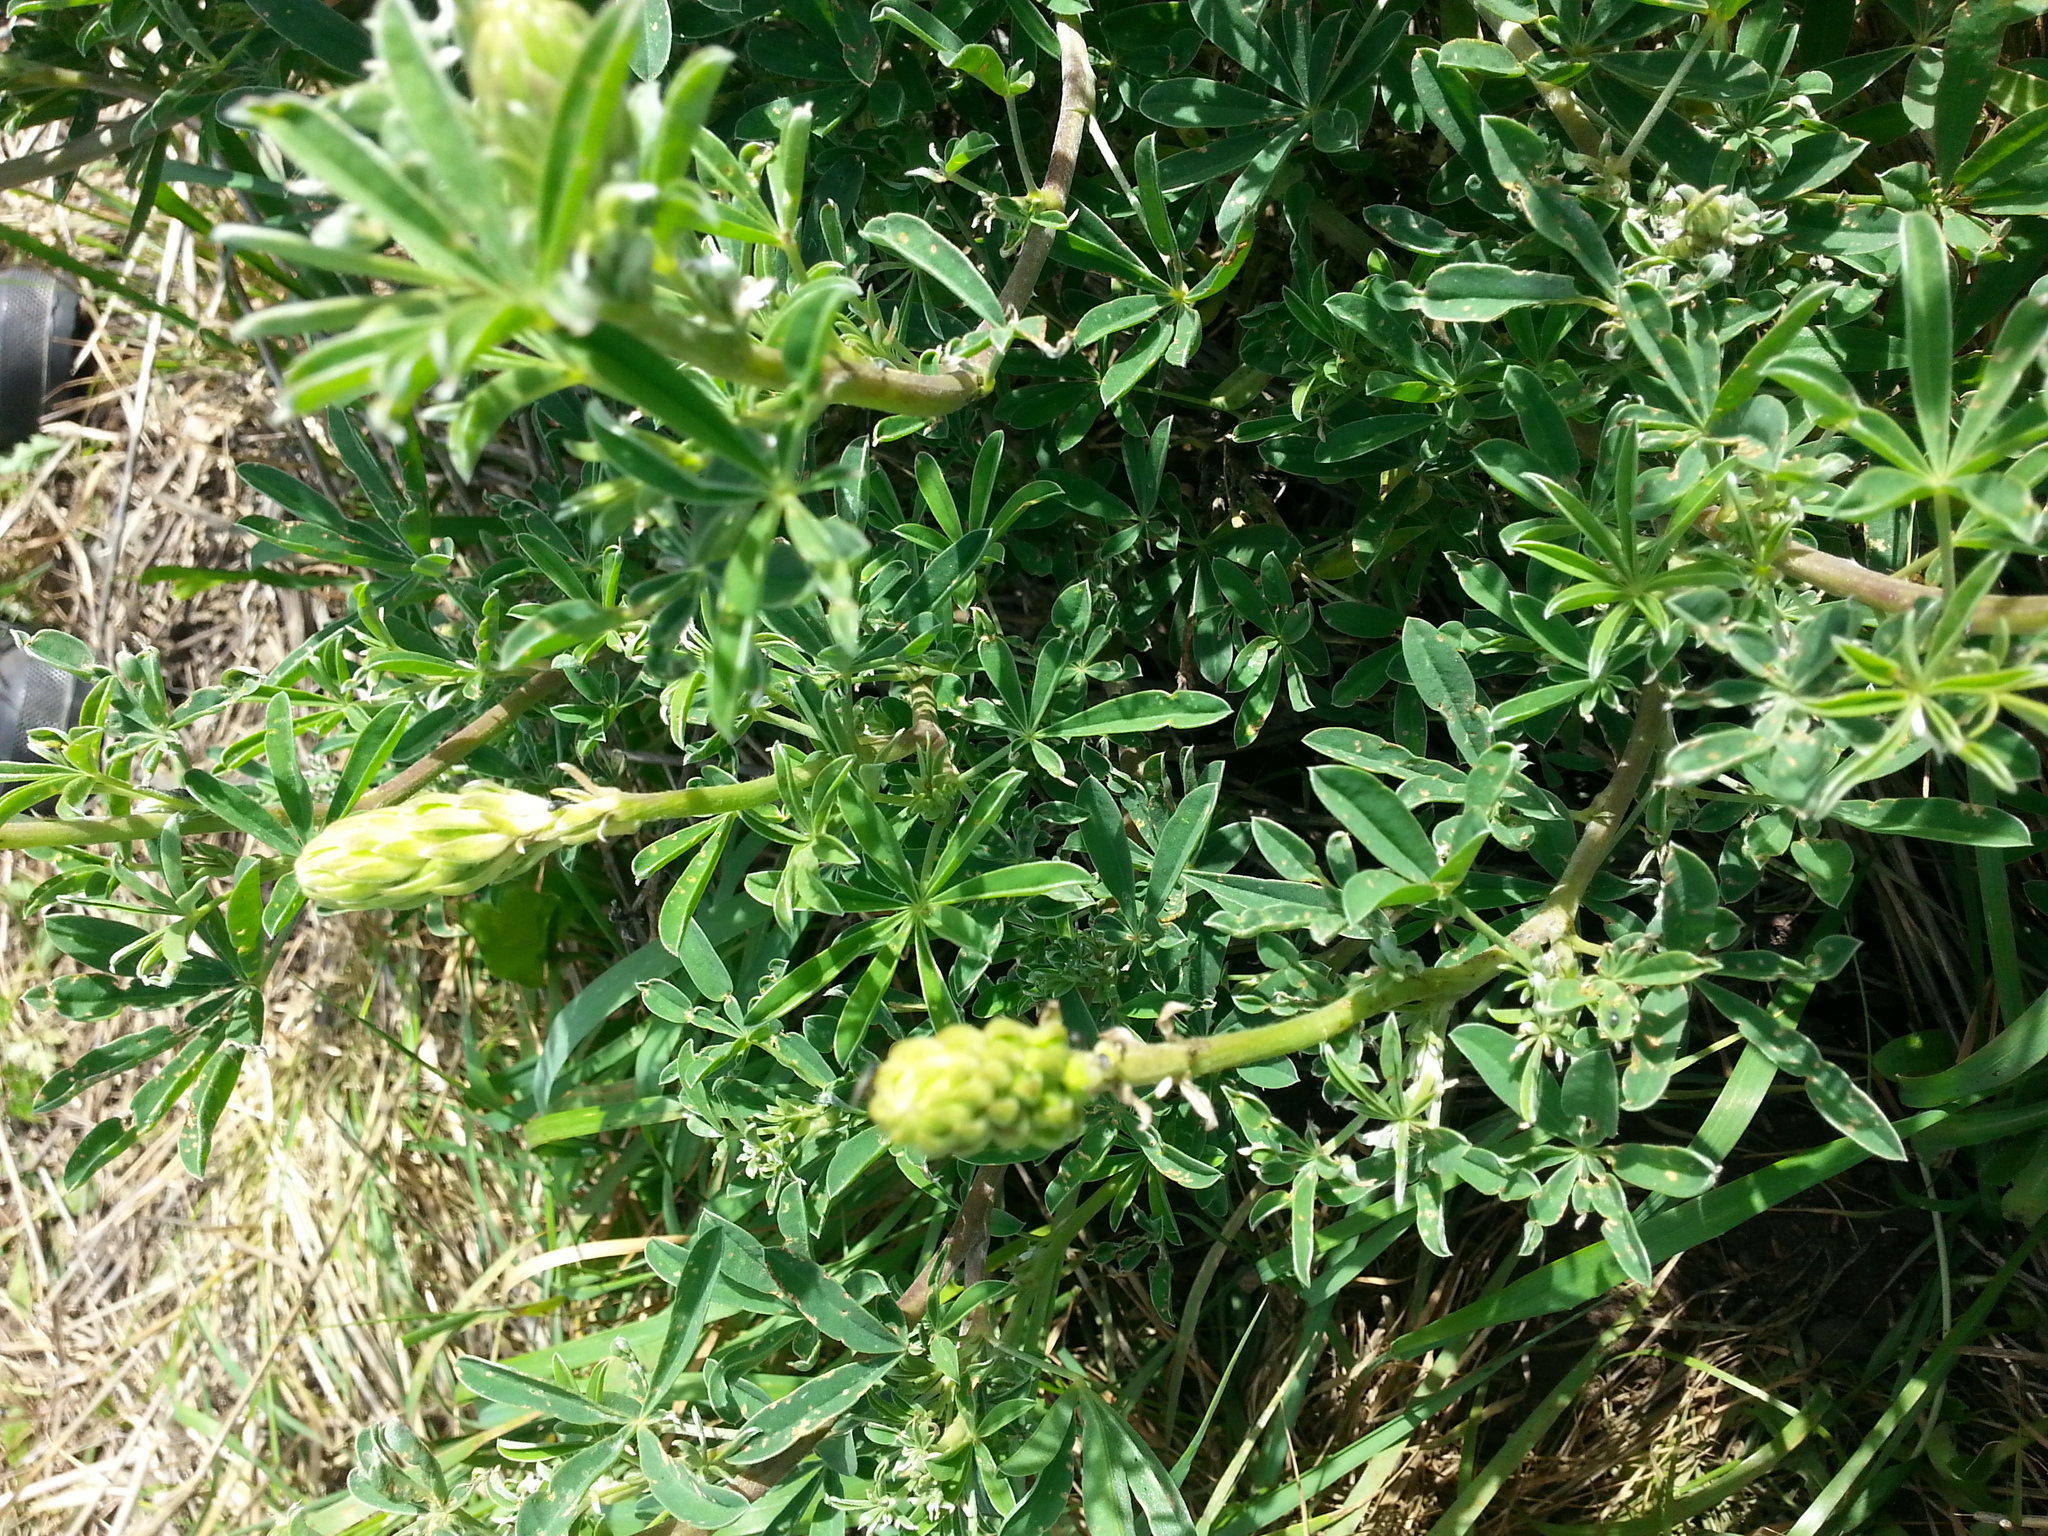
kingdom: Plantae
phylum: Tracheophyta
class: Magnoliopsida
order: Fabales
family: Fabaceae
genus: Lupinus
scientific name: Lupinus arboreus
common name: Yellow bush lupine
